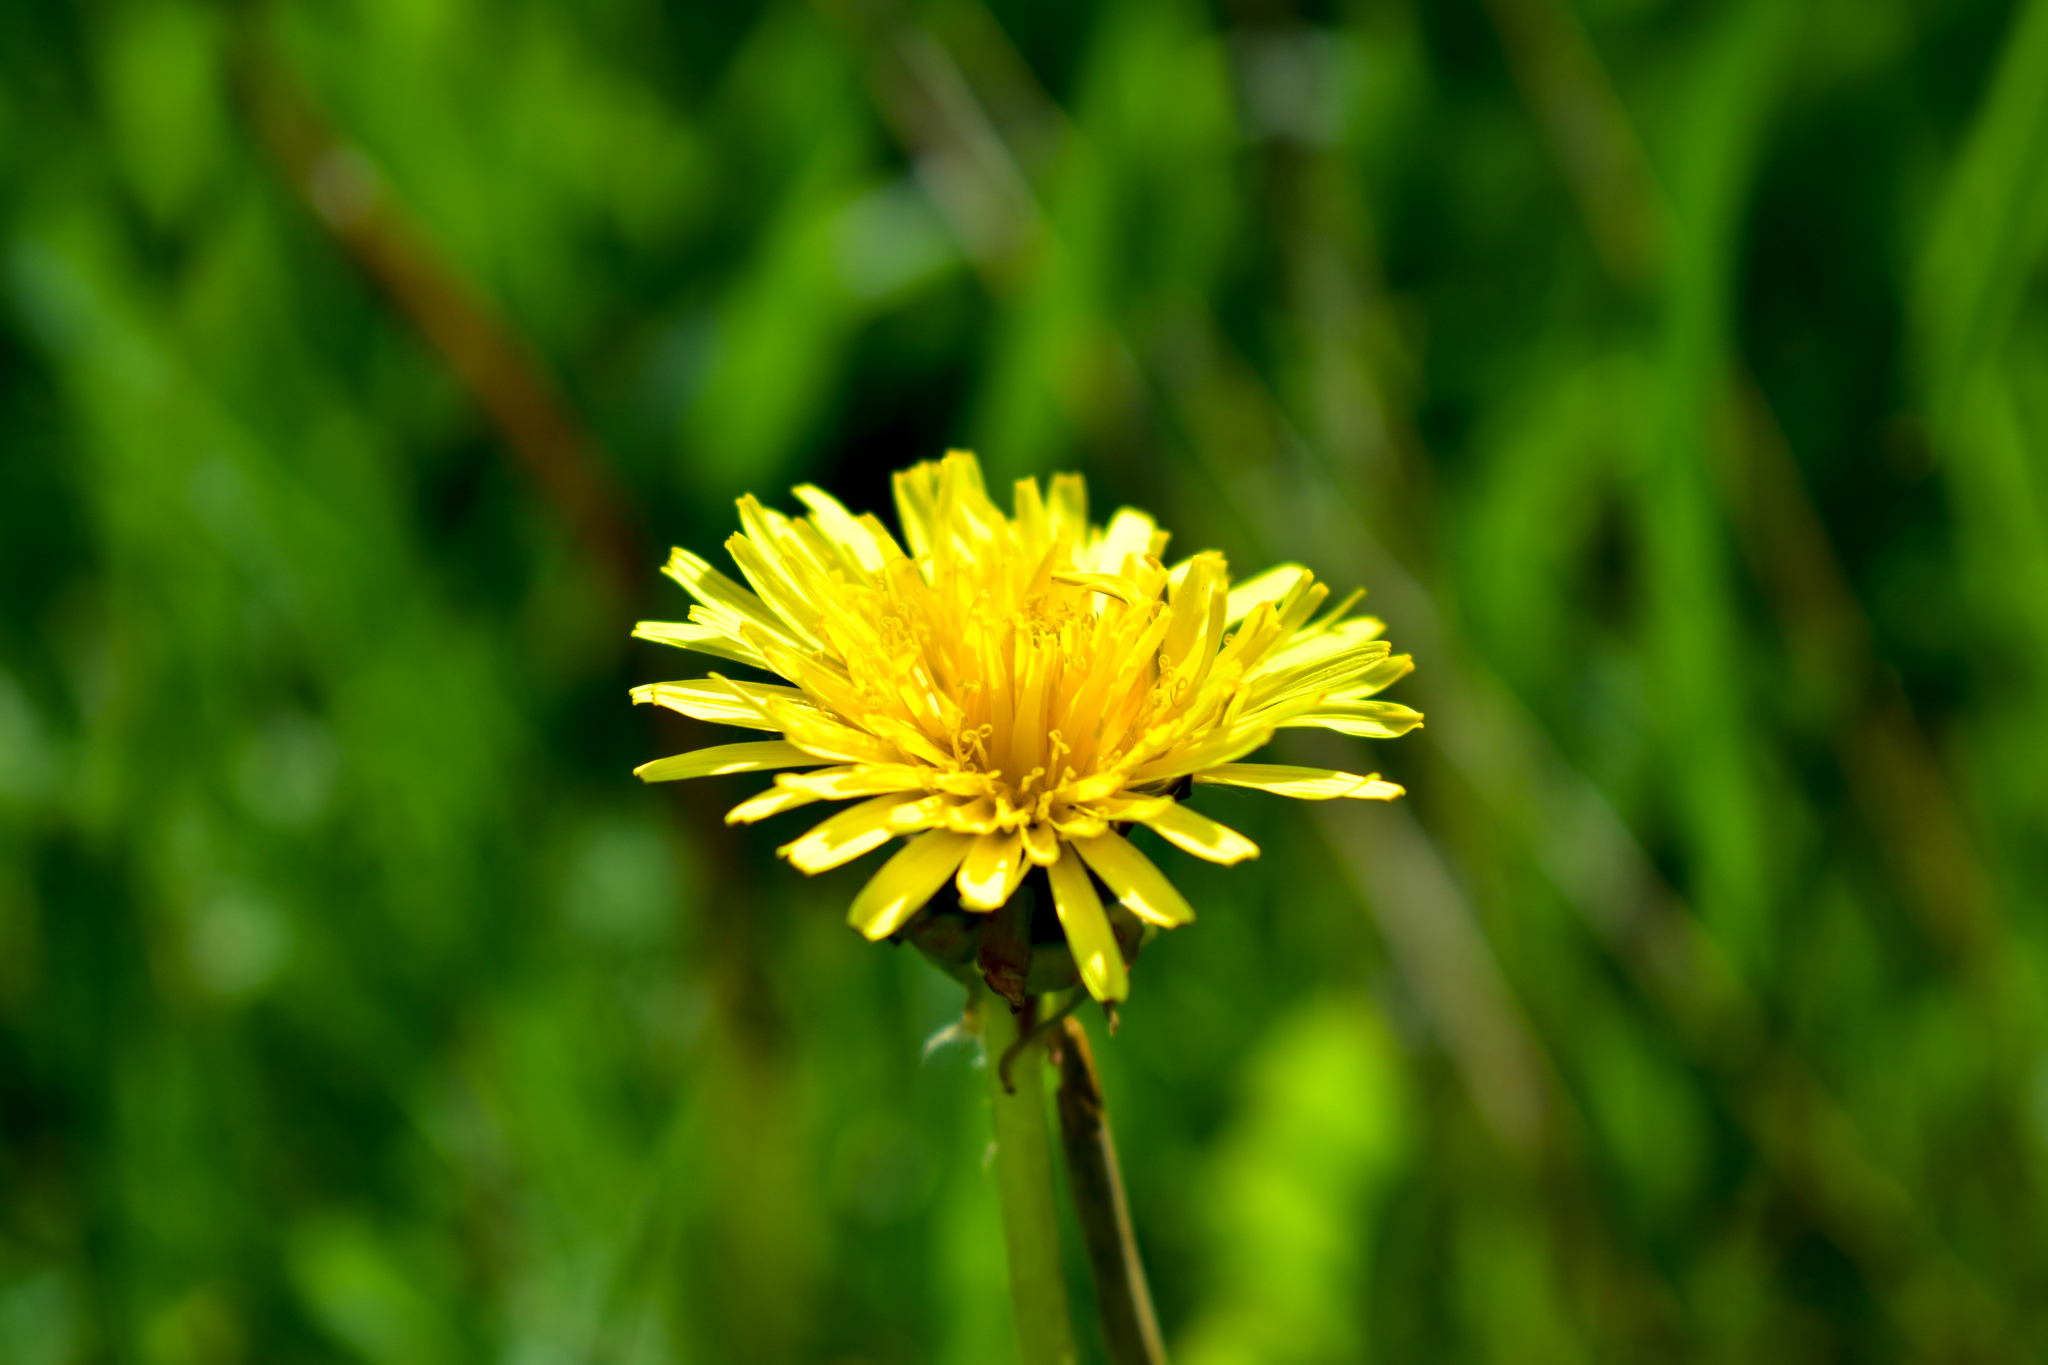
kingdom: Plantae
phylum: Tracheophyta
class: Magnoliopsida
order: Asterales
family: Asteraceae
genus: Taraxacum
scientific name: Taraxacum officinale
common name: Common dandelion
